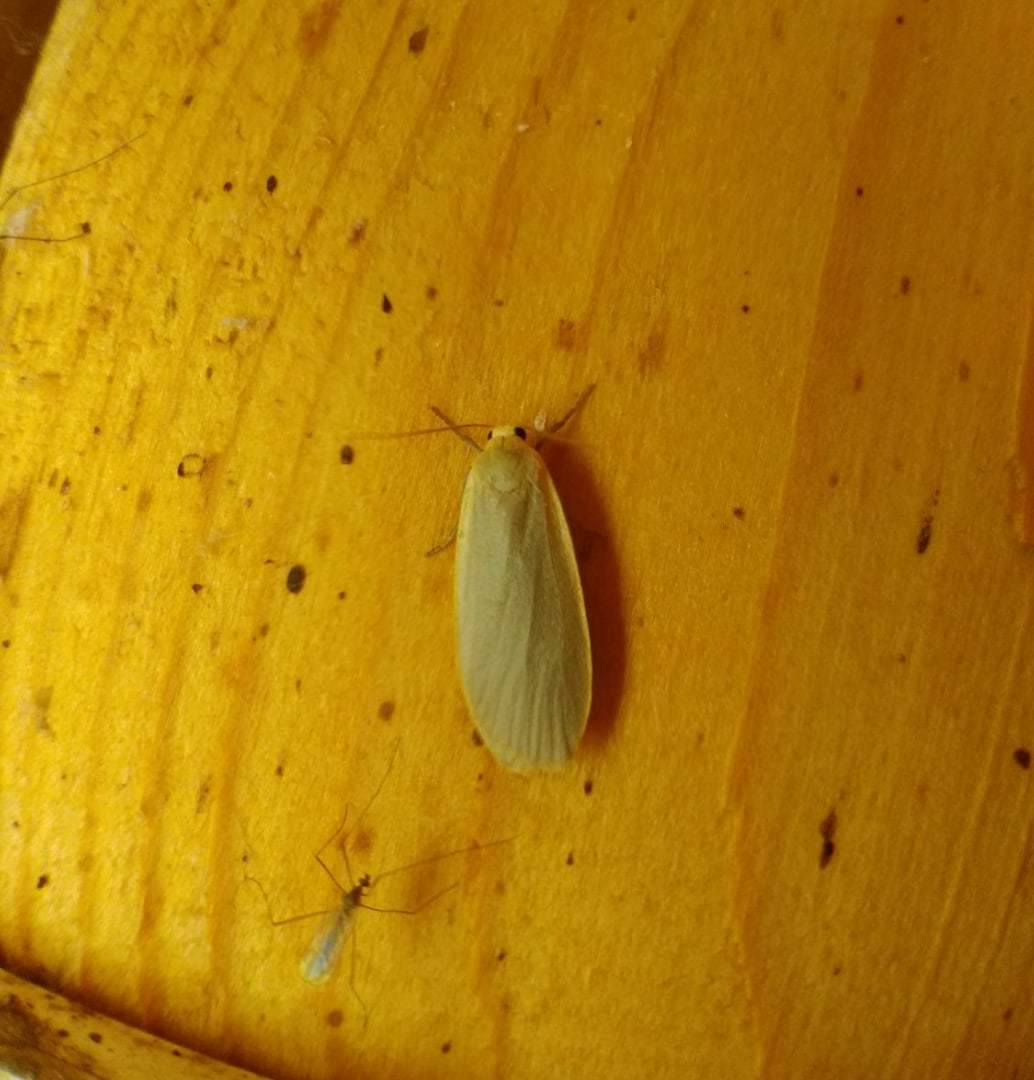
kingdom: Animalia
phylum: Arthropoda
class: Insecta
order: Lepidoptera
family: Erebidae
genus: Collita
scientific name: Collita griseola
